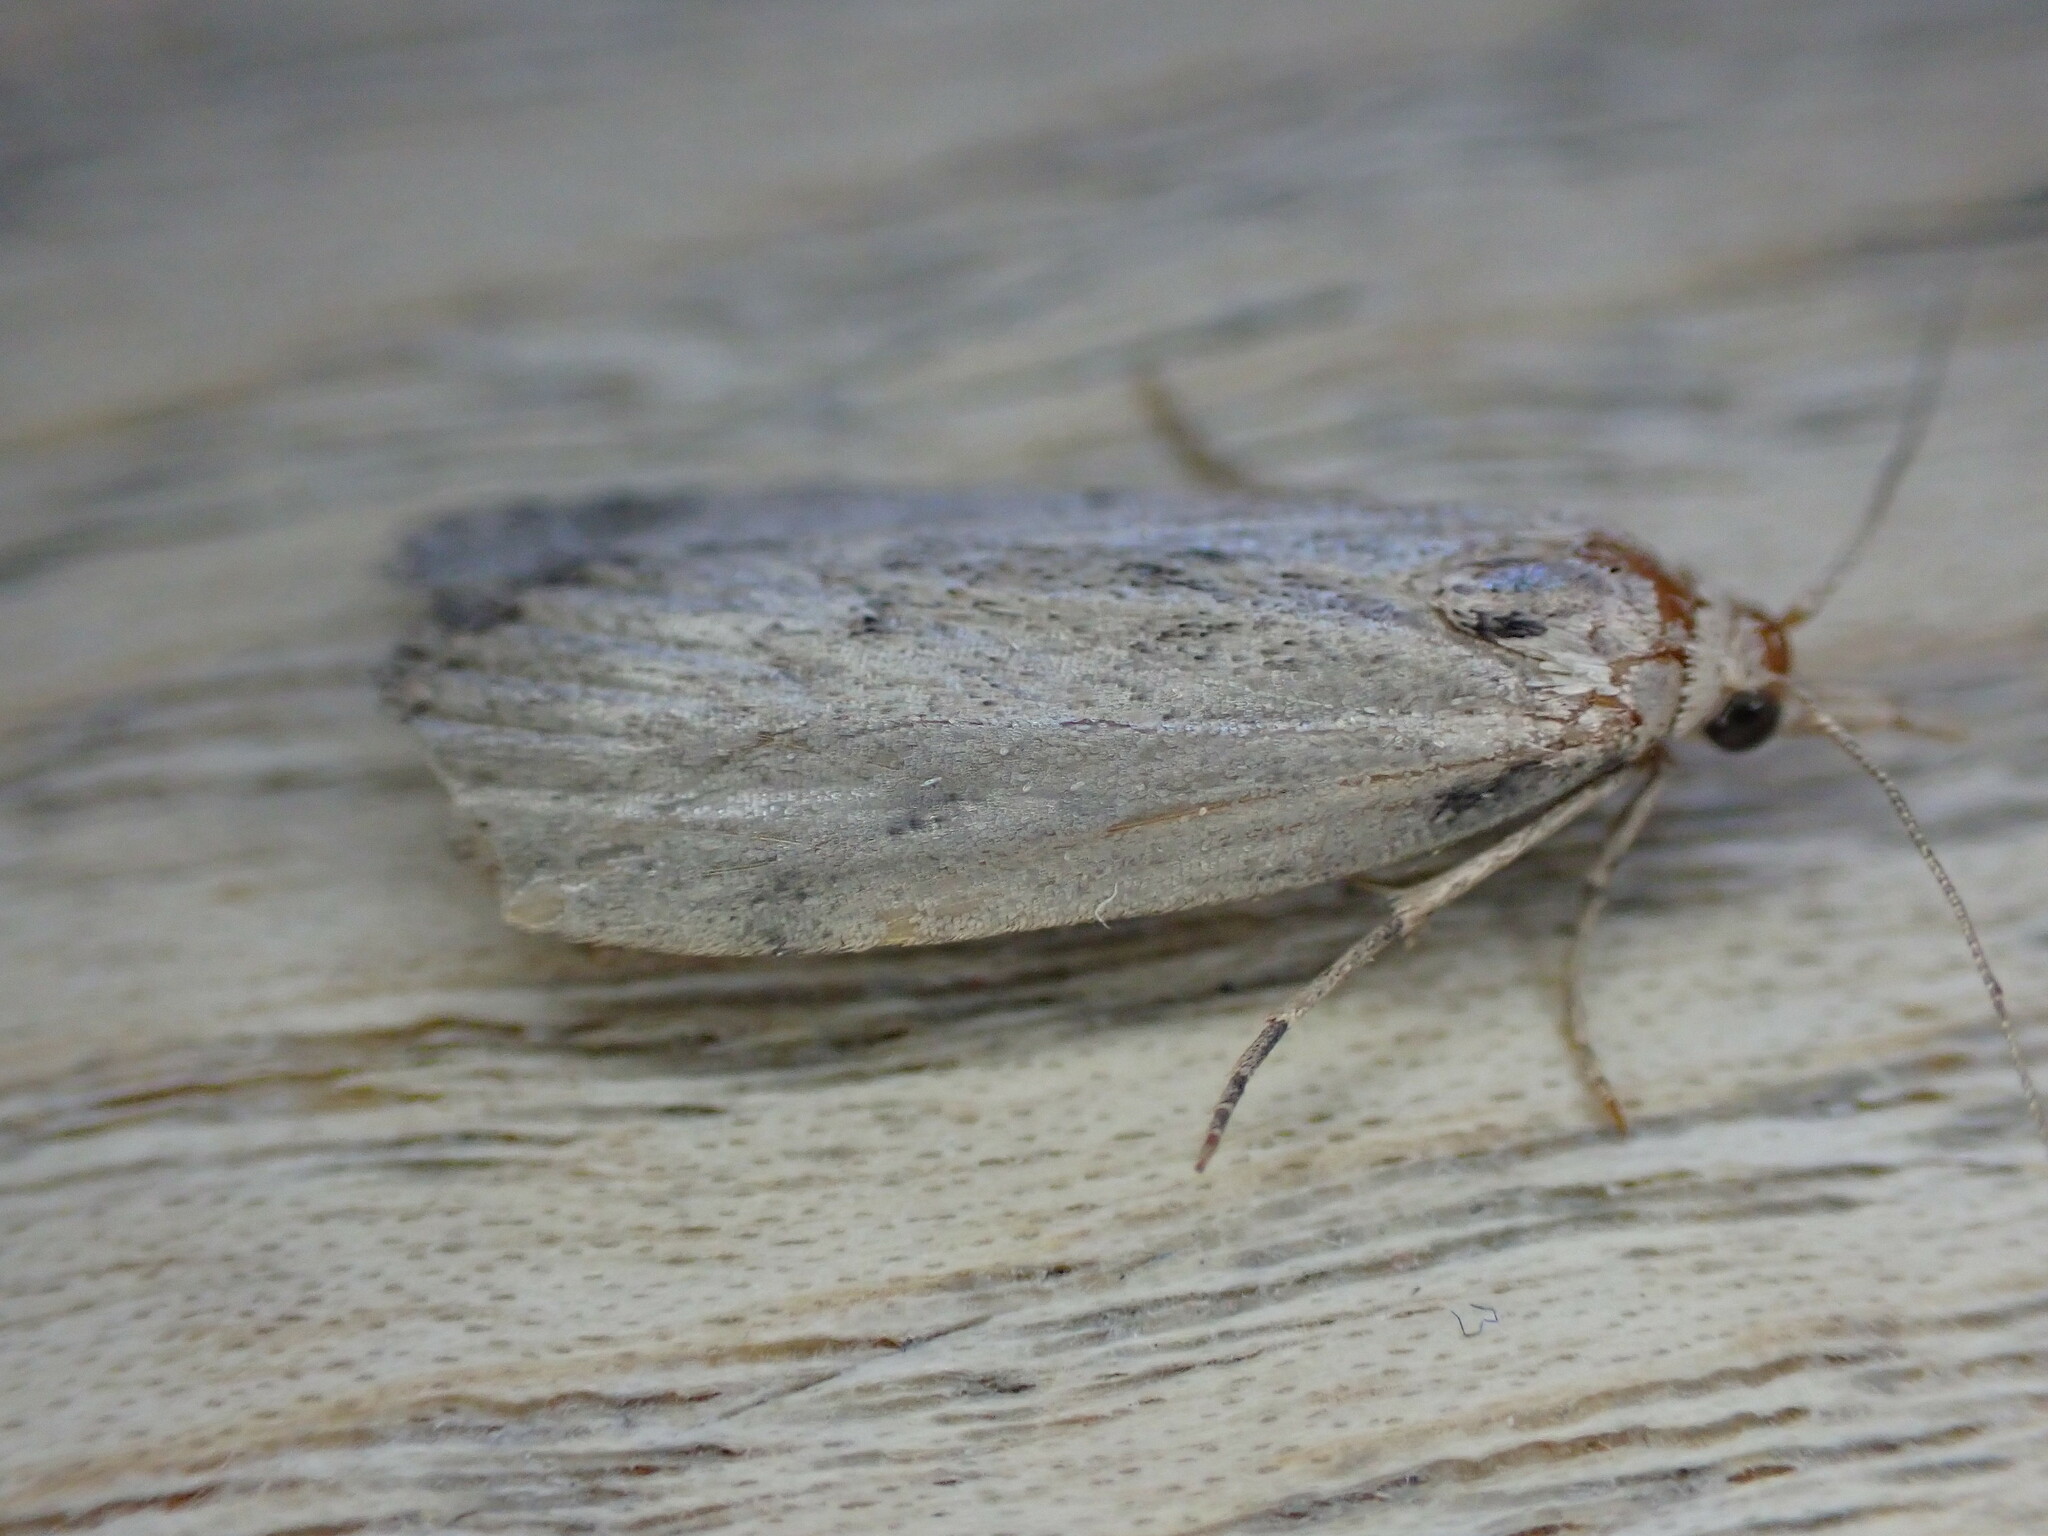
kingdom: Animalia
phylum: Arthropoda
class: Insecta
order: Lepidoptera
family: Pyralidae
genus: Aphomia
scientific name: Aphomia sociella
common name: Bee moth
